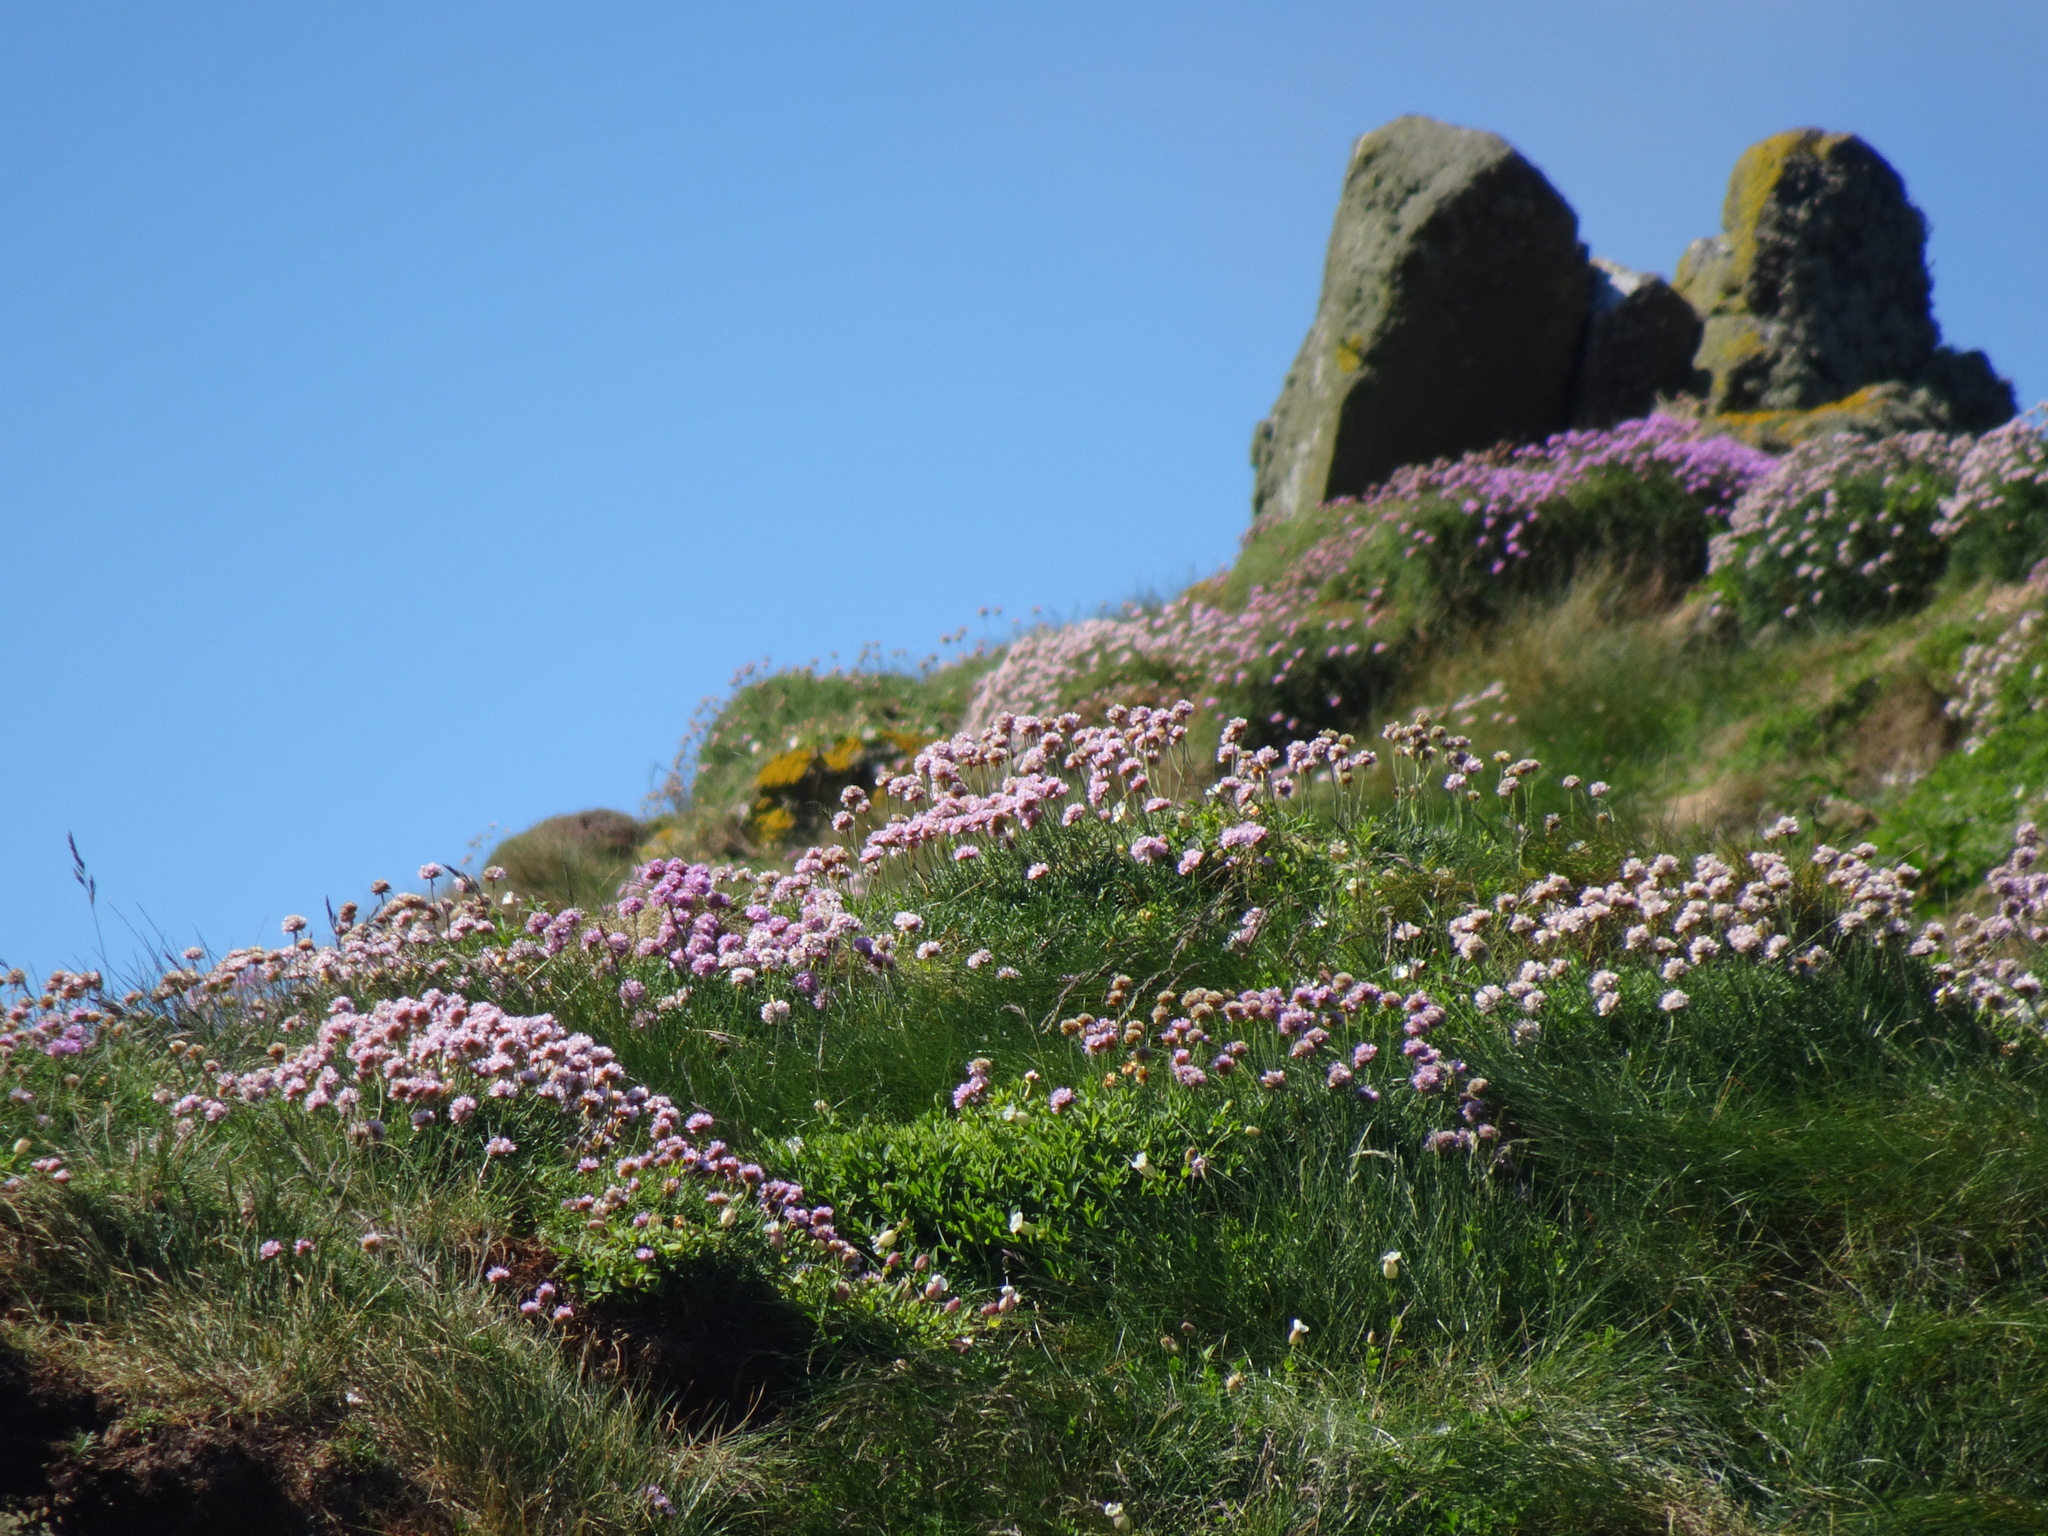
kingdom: Plantae
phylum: Tracheophyta
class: Magnoliopsida
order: Caryophyllales
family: Plumbaginaceae
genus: Armeria
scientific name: Armeria maritima
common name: Thrift
